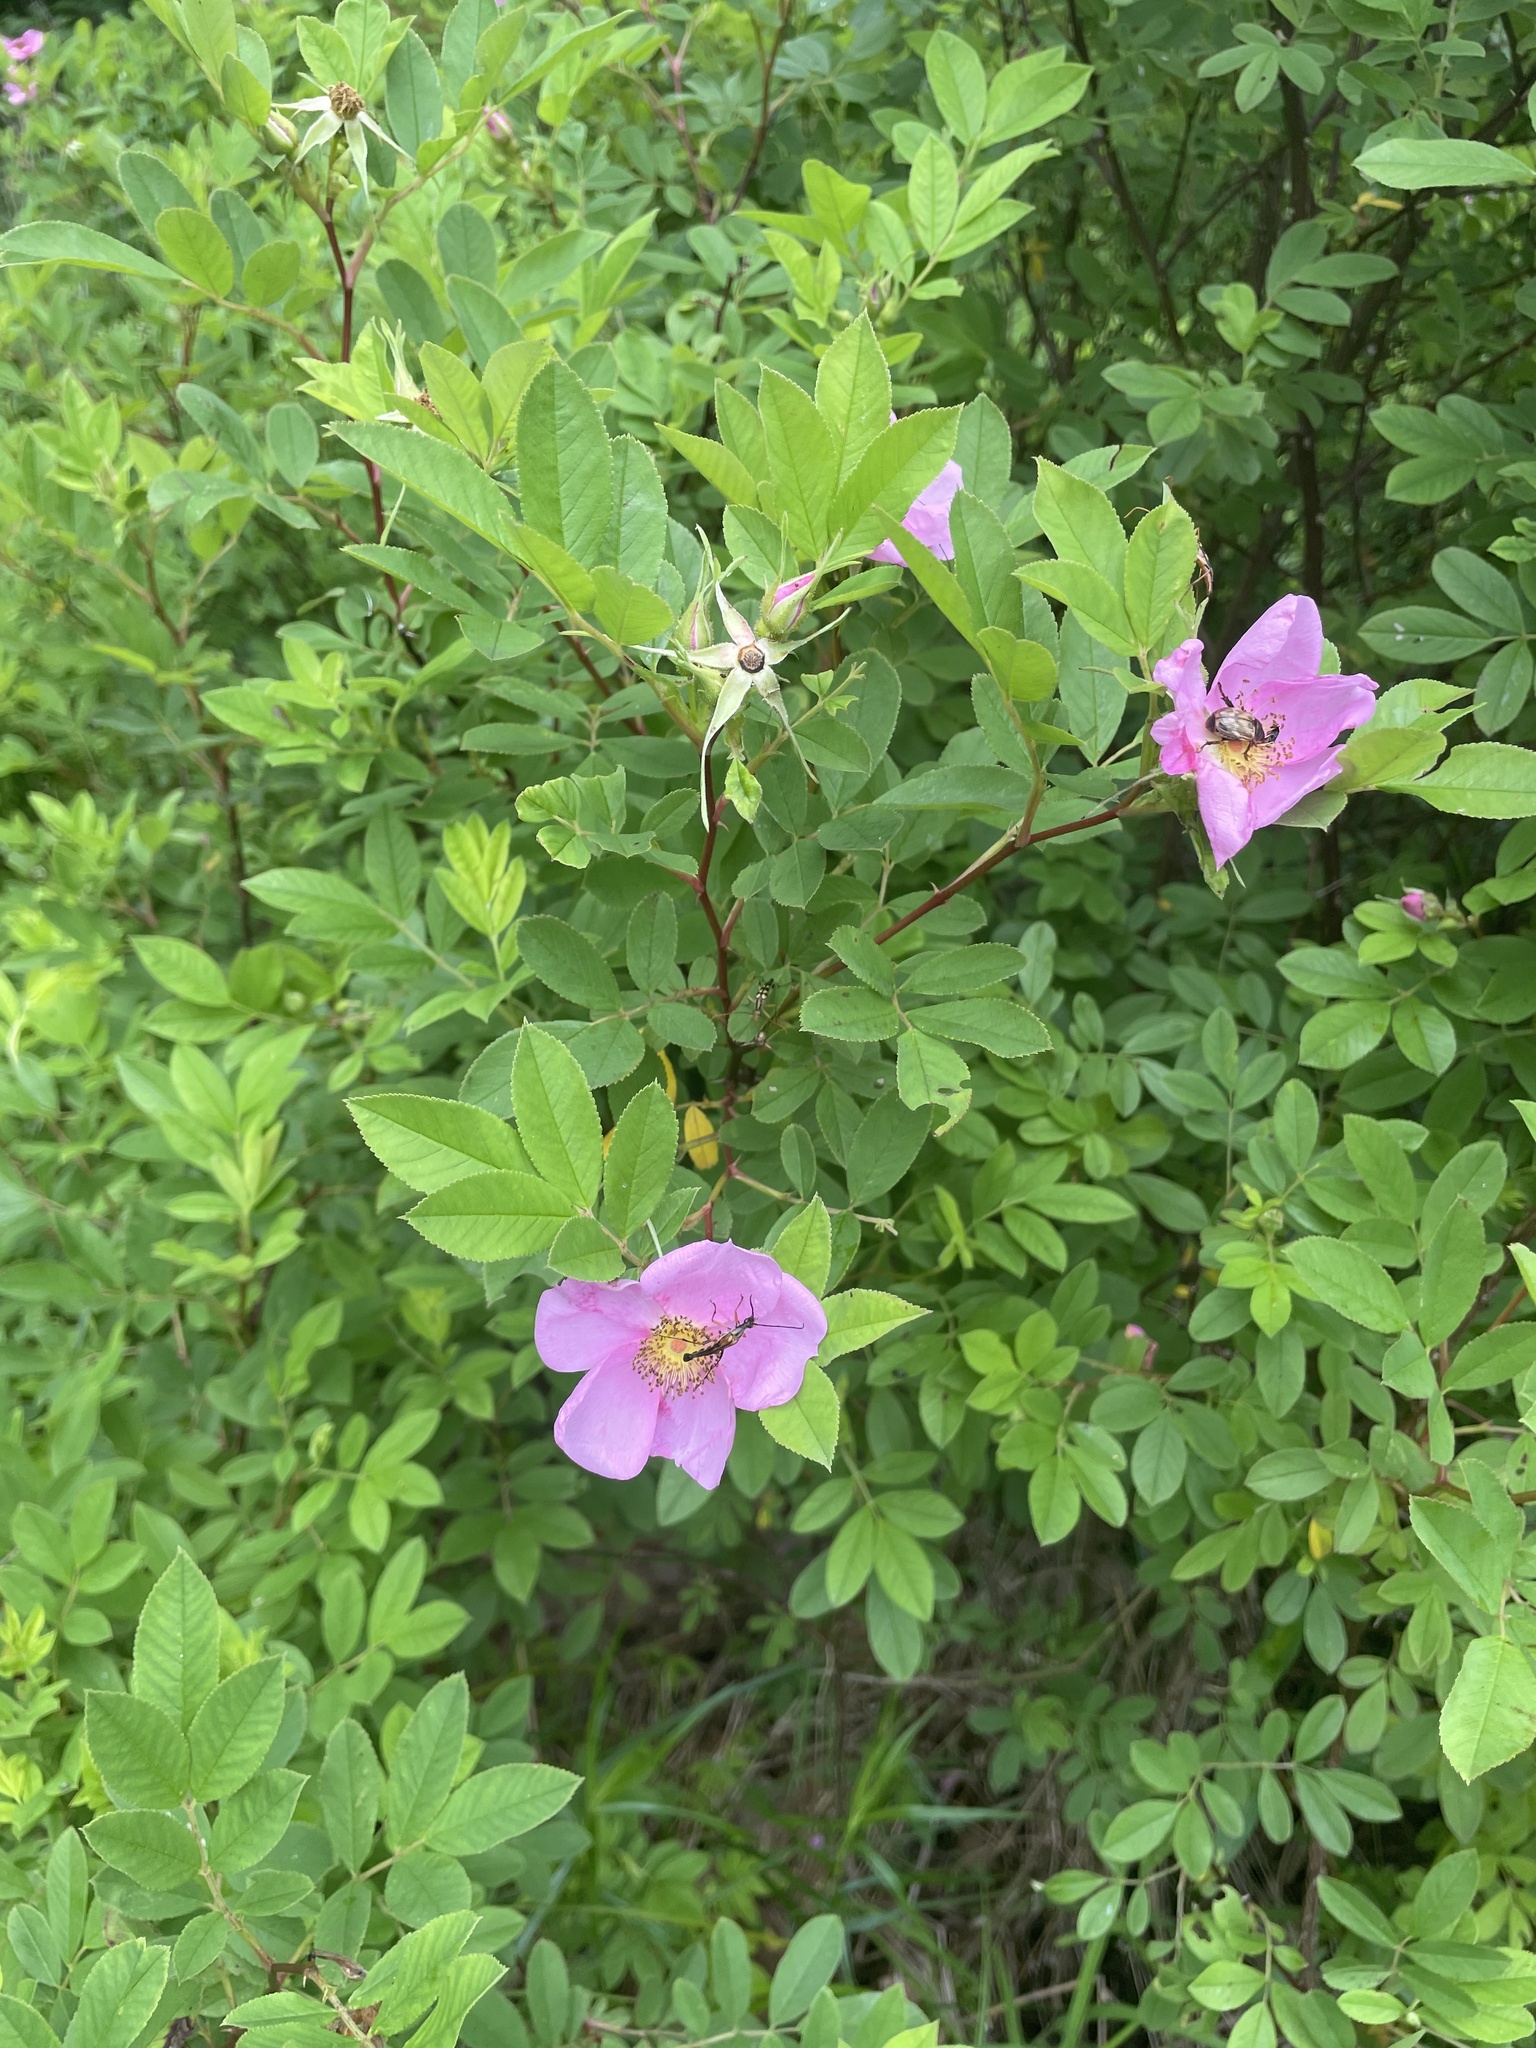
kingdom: Plantae
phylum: Tracheophyta
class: Magnoliopsida
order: Rosales
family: Rosaceae
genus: Rosa
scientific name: Rosa palustris
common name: Swamp rose
